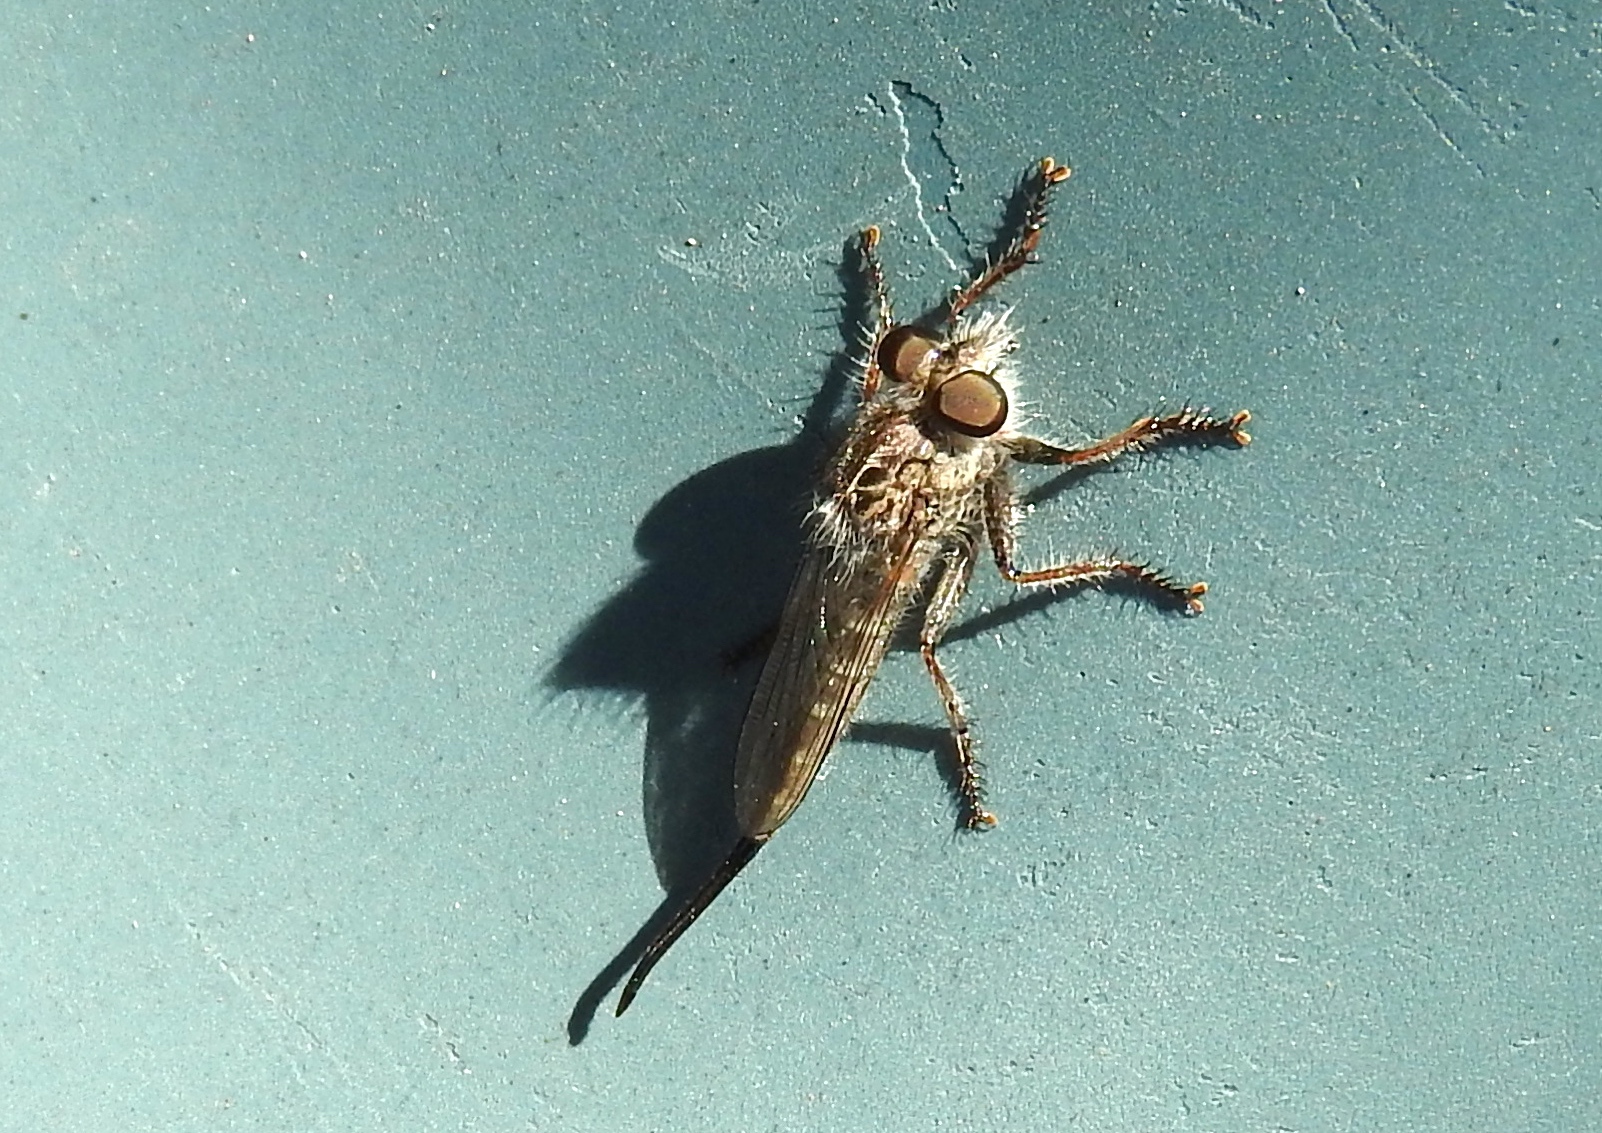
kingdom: Animalia
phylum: Arthropoda
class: Insecta
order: Diptera
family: Asilidae
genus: Efferia
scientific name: Efferia
